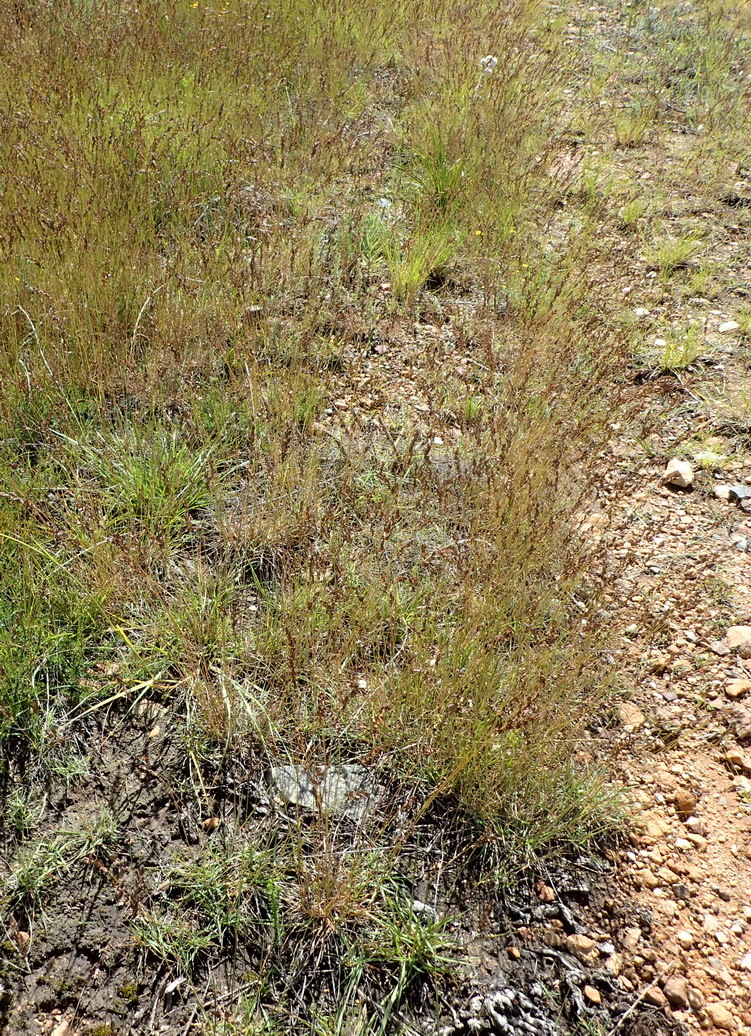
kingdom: Plantae
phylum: Tracheophyta
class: Liliopsida
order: Poales
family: Poaceae
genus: Eragrostis
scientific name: Eragrostis capensis
